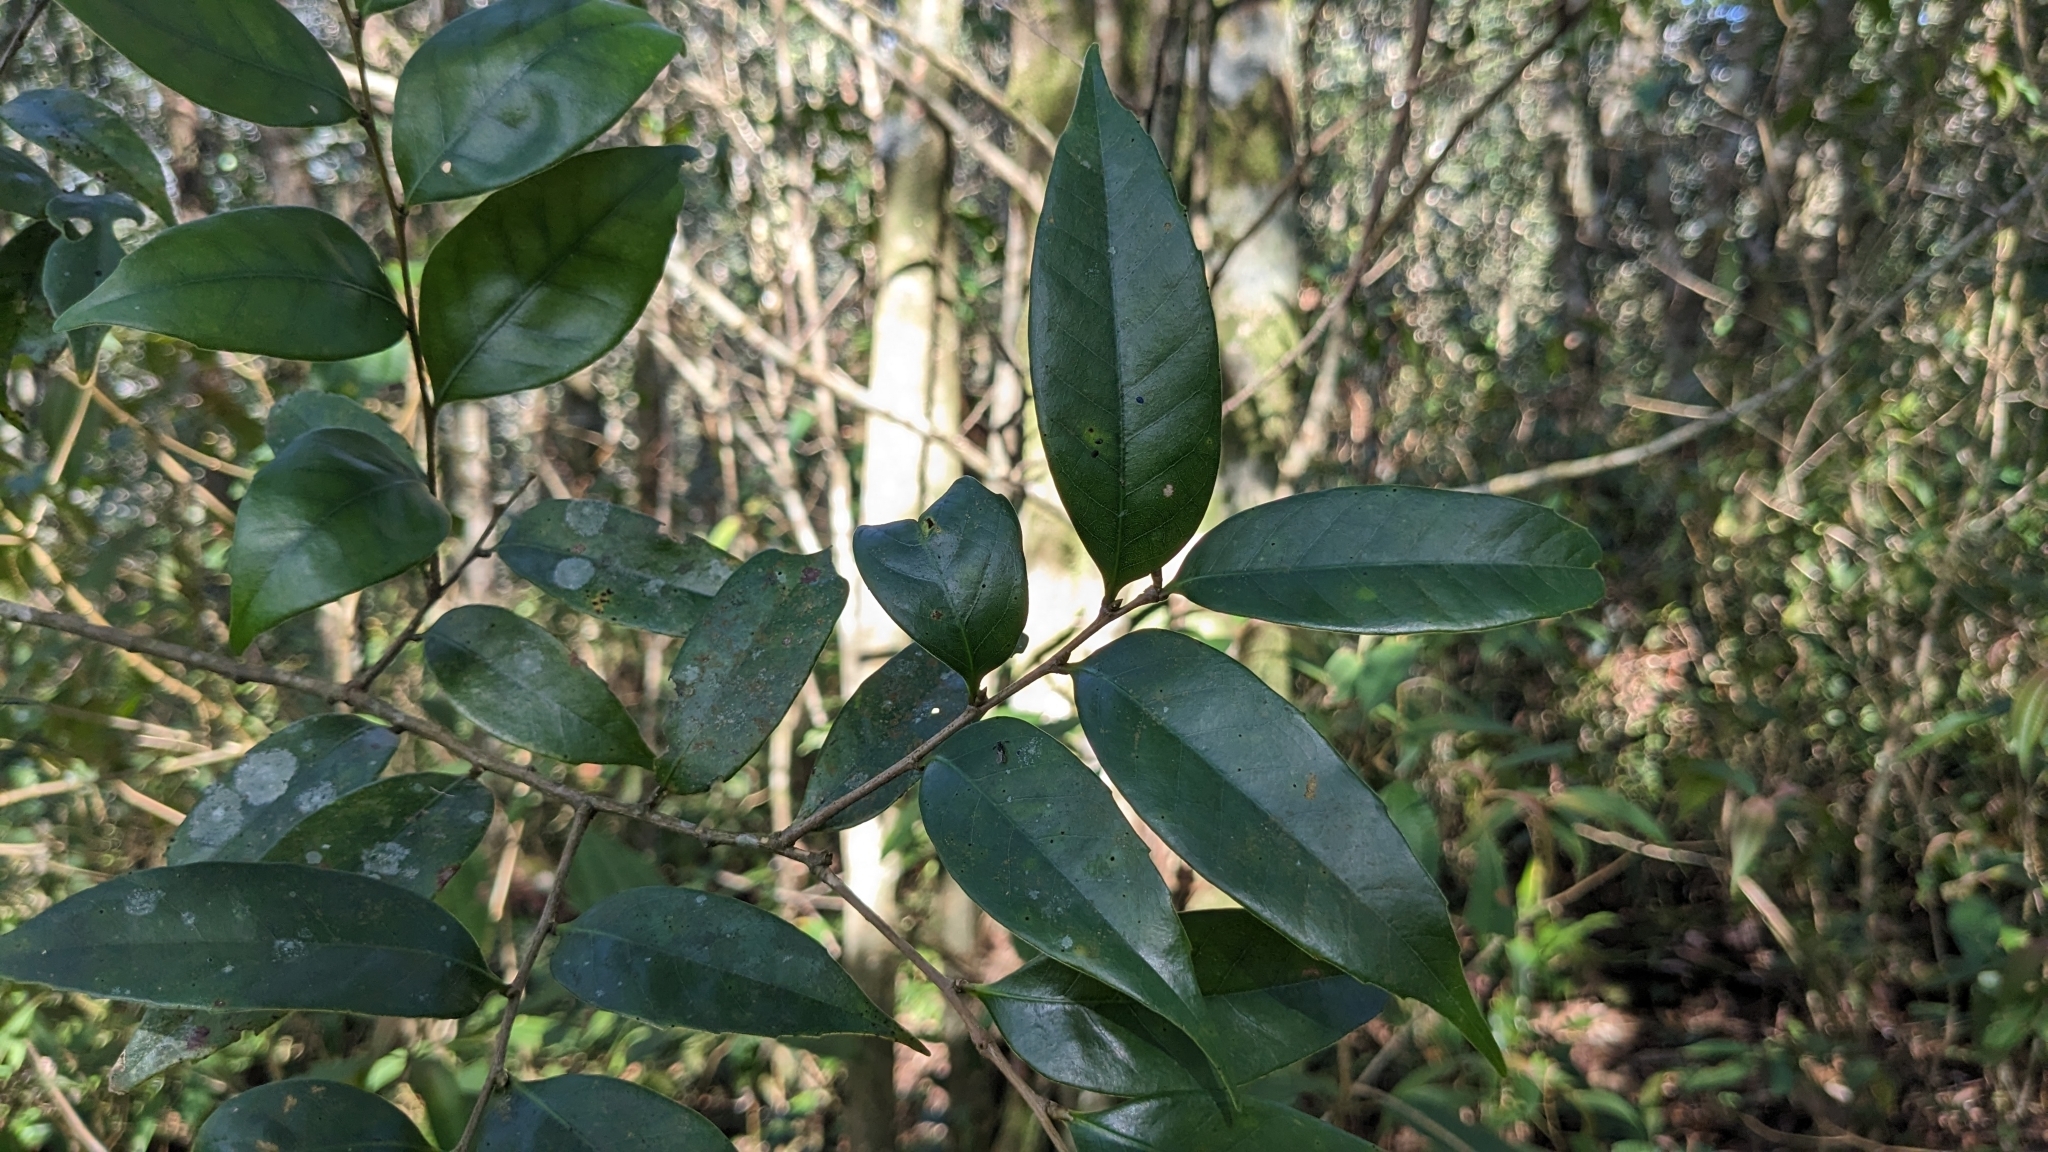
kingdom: Plantae
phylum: Tracheophyta
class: Magnoliopsida
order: Fagales
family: Fagaceae
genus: Lithocarpus
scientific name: Lithocarpus uraianus
